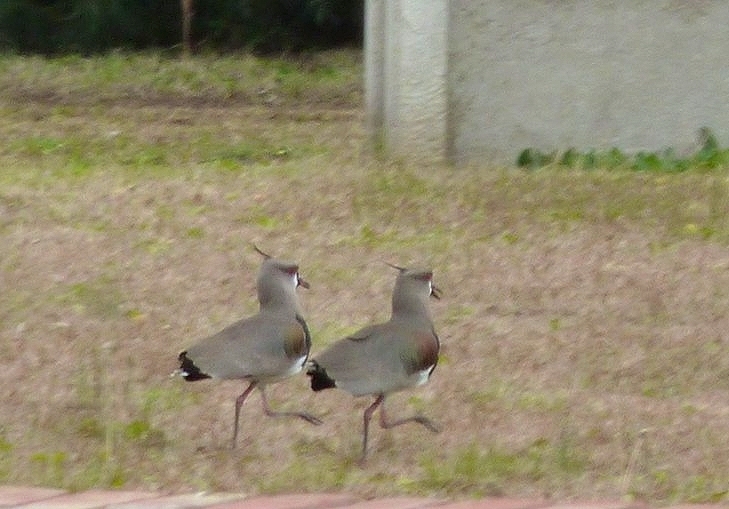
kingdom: Animalia
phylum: Chordata
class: Aves
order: Charadriiformes
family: Charadriidae
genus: Vanellus
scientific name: Vanellus chilensis
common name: Southern lapwing
